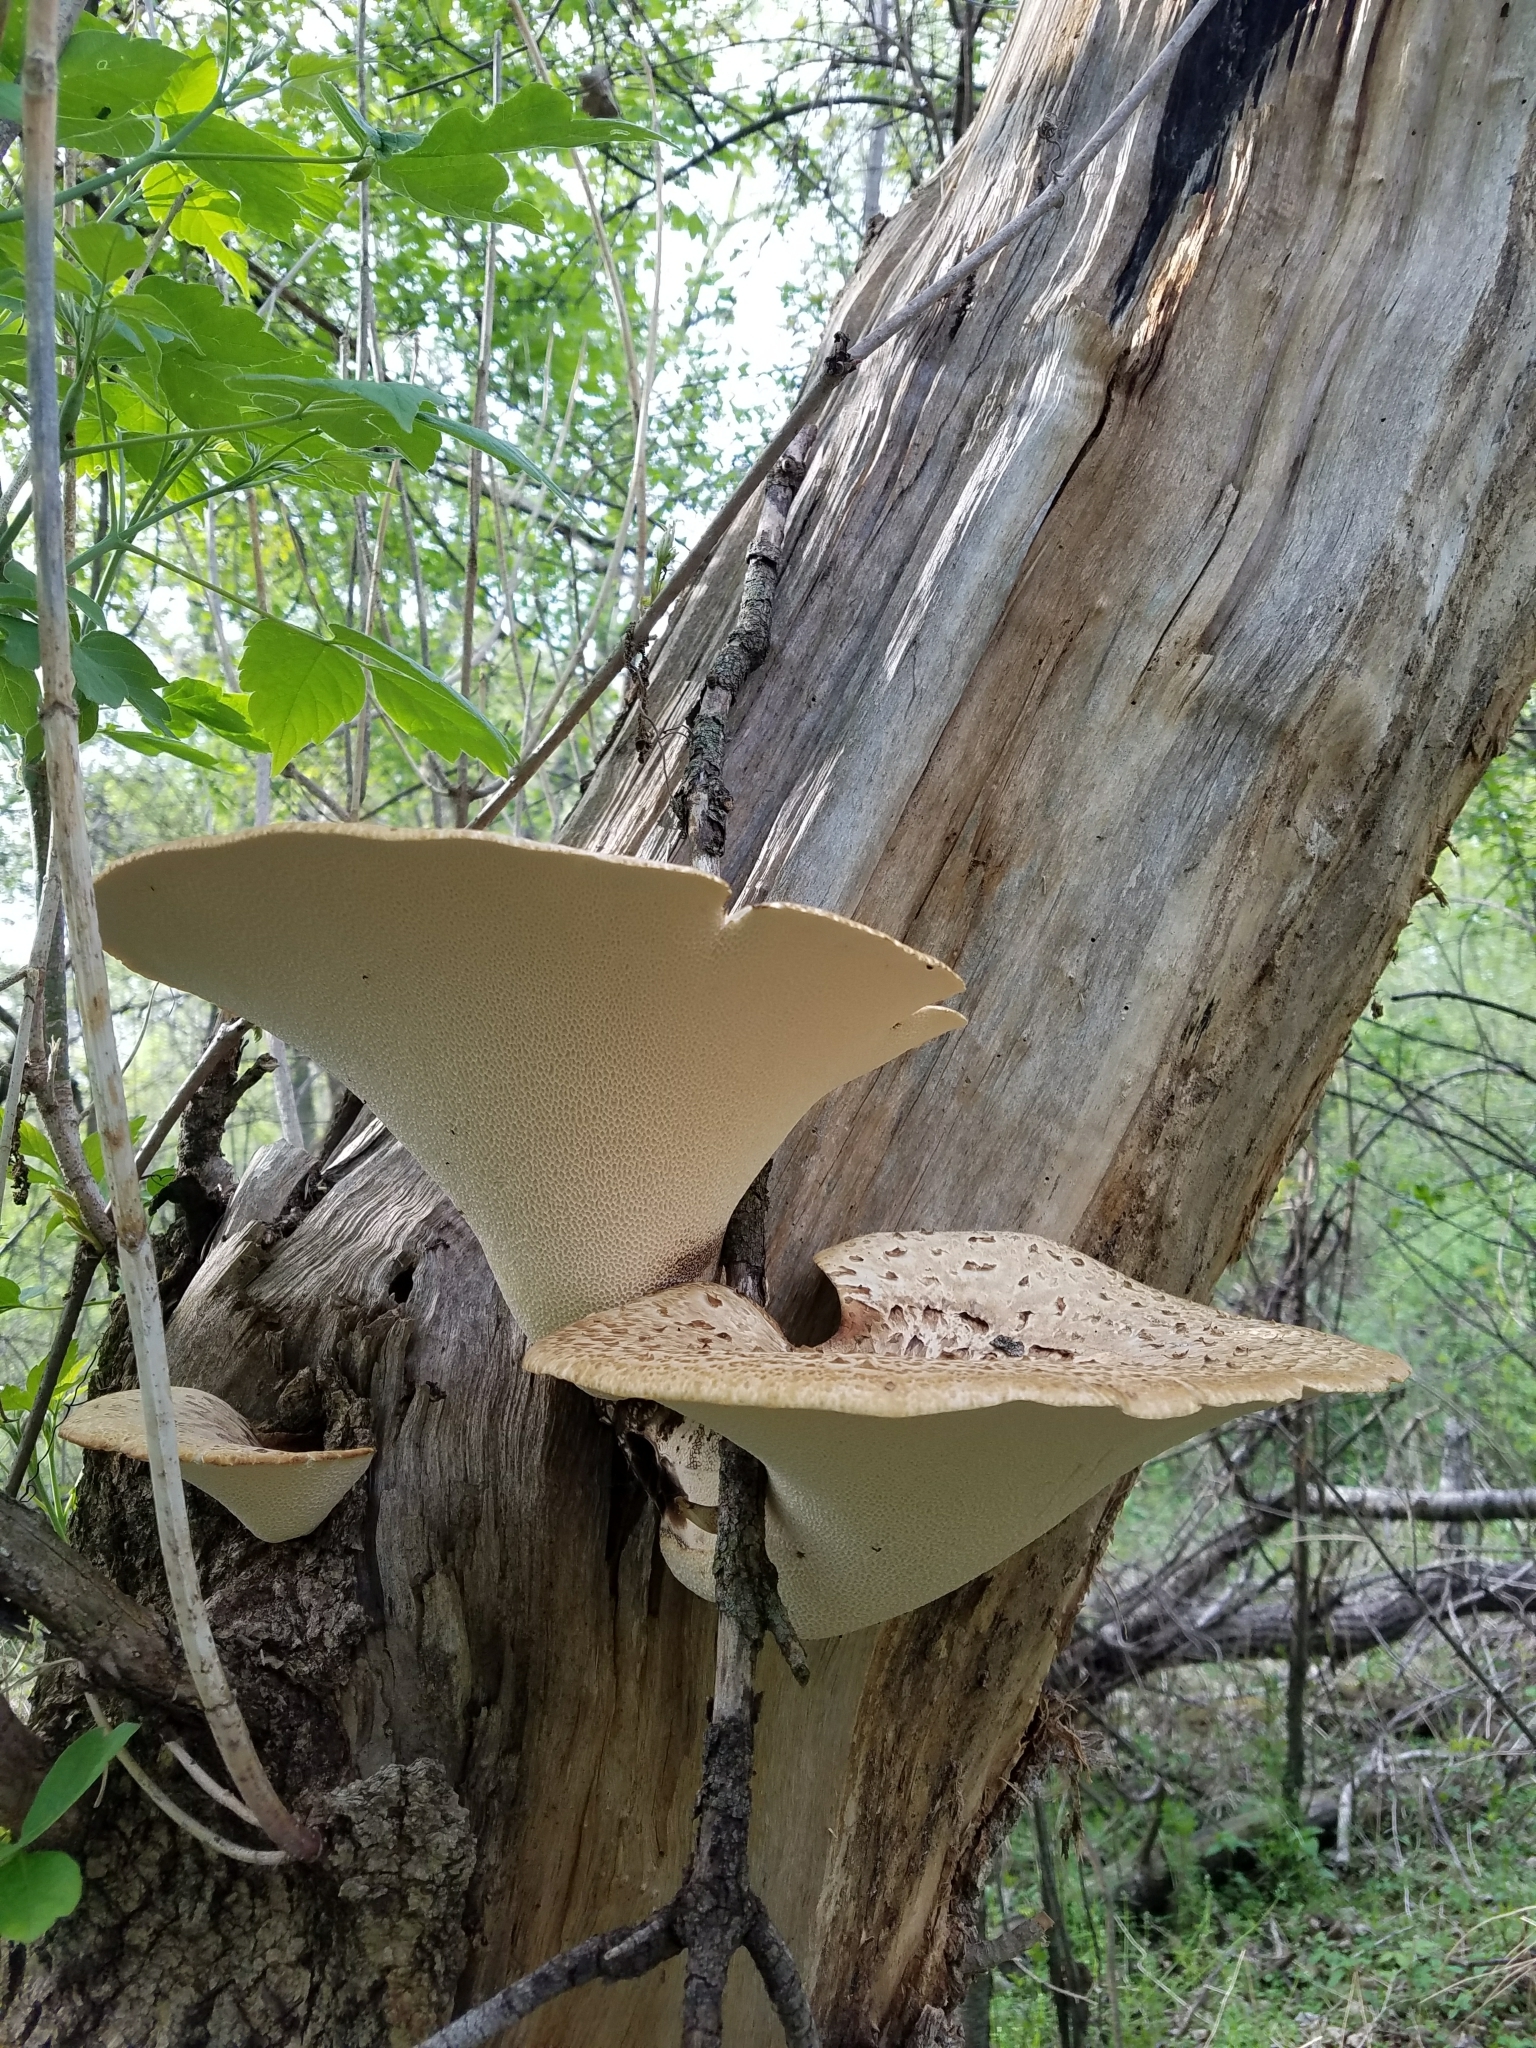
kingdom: Fungi
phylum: Basidiomycota
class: Agaricomycetes
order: Polyporales
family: Polyporaceae
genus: Cerioporus
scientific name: Cerioporus squamosus
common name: Dryad's saddle
